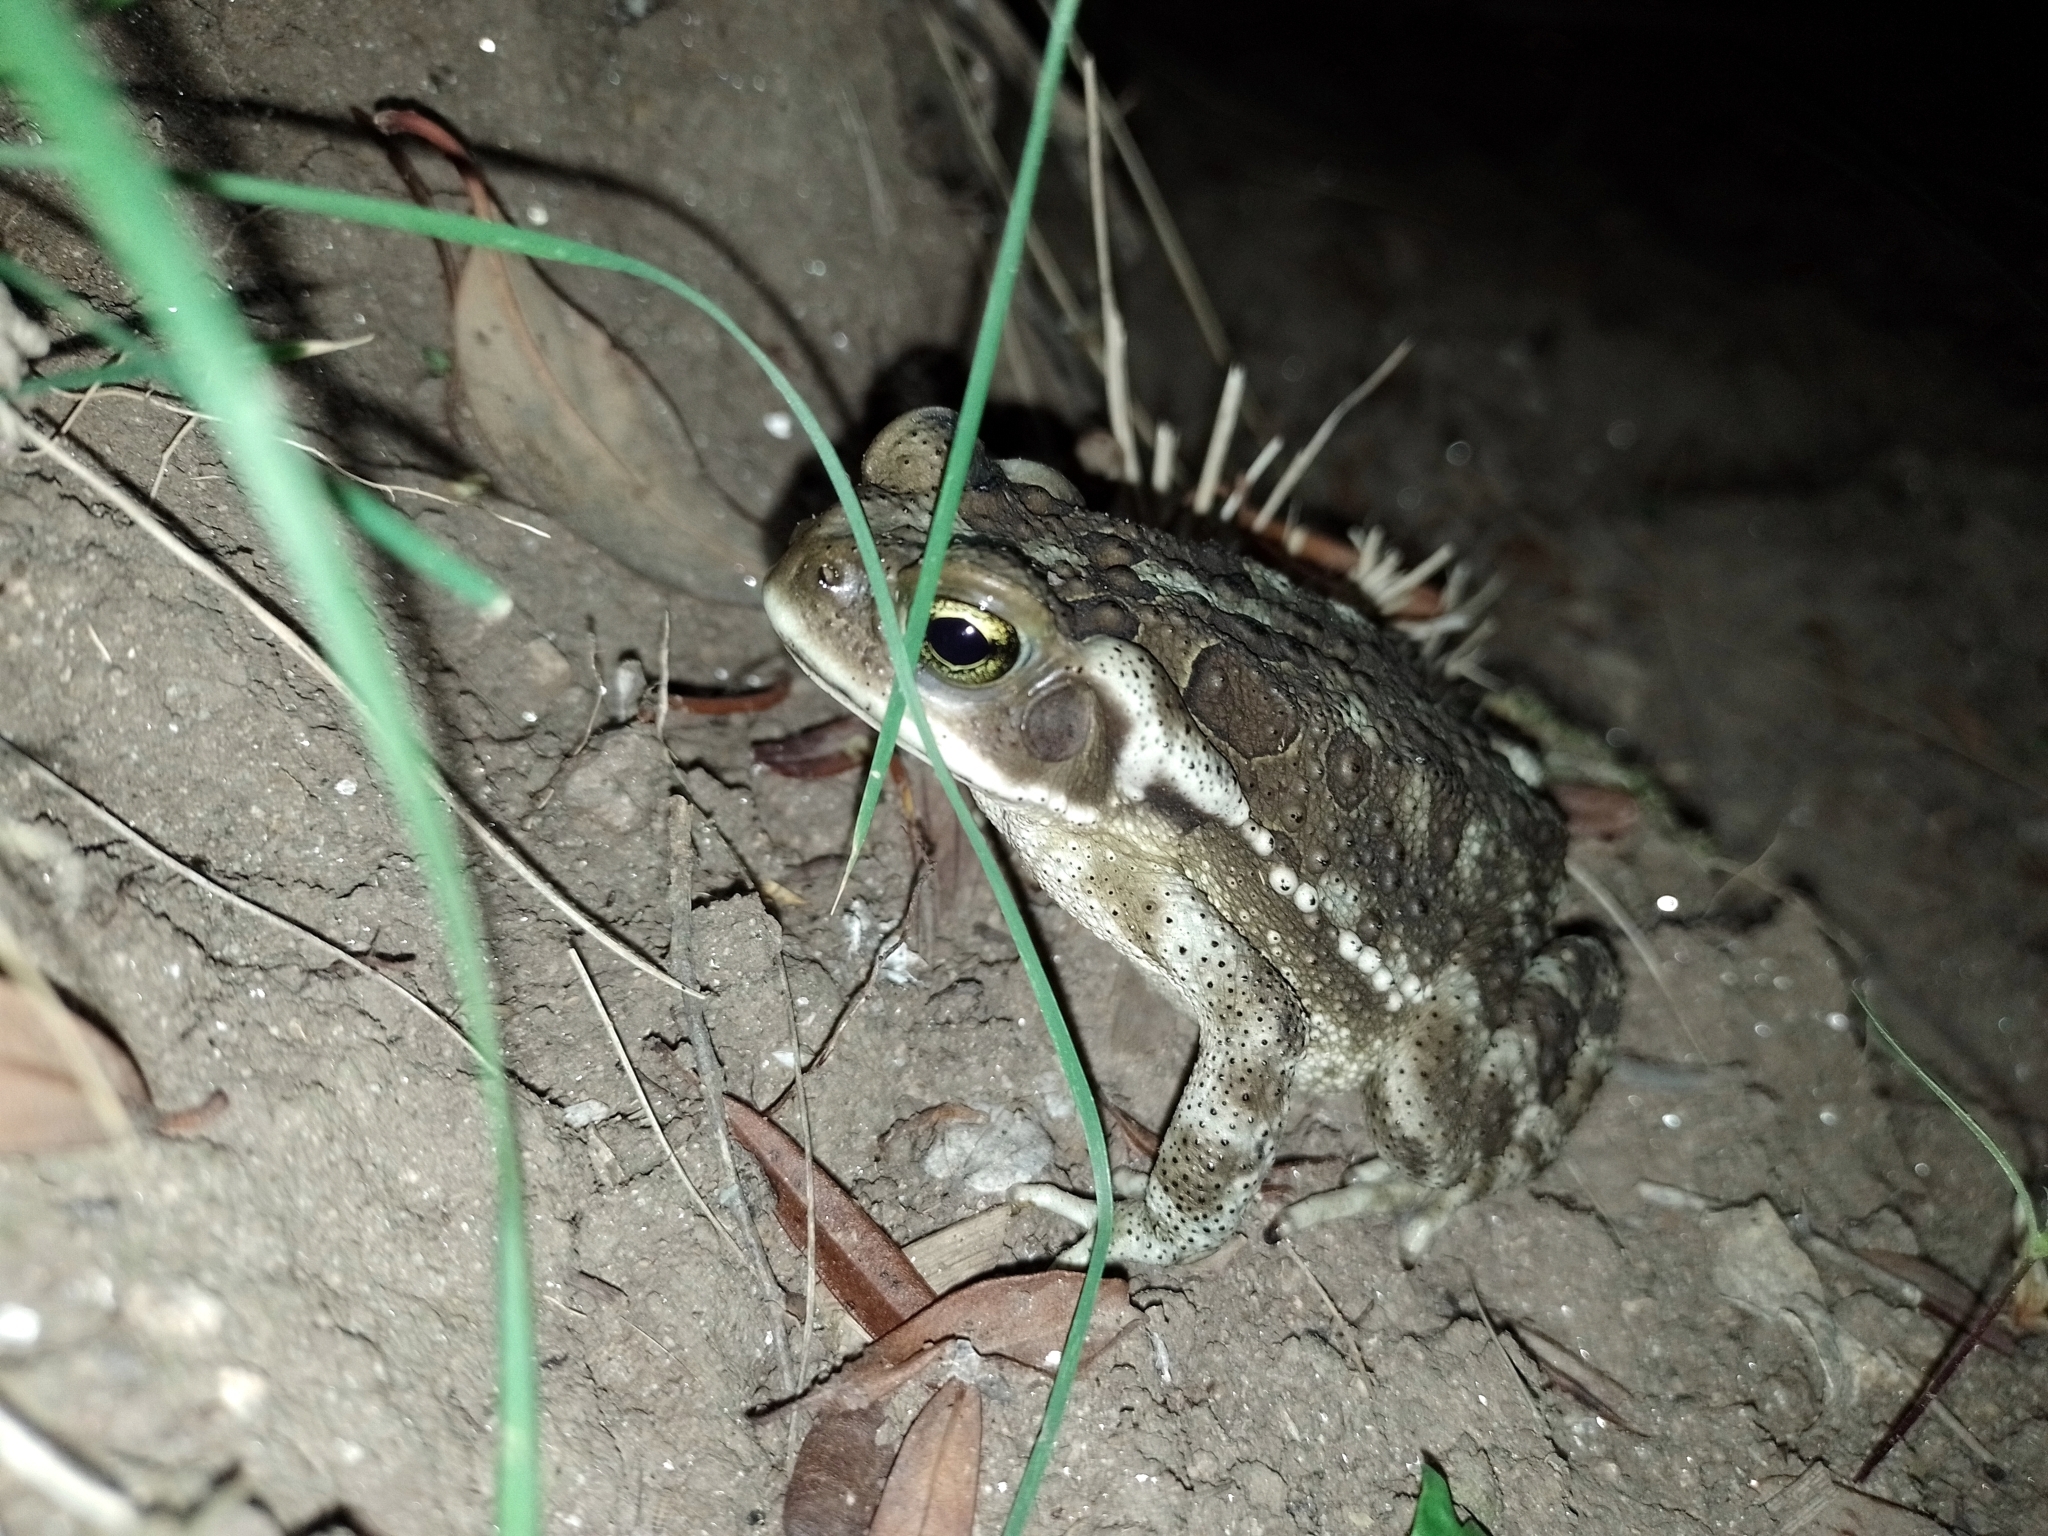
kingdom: Animalia
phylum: Chordata
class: Amphibia
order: Anura
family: Bufonidae
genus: Rhinella
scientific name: Rhinella arenarum
